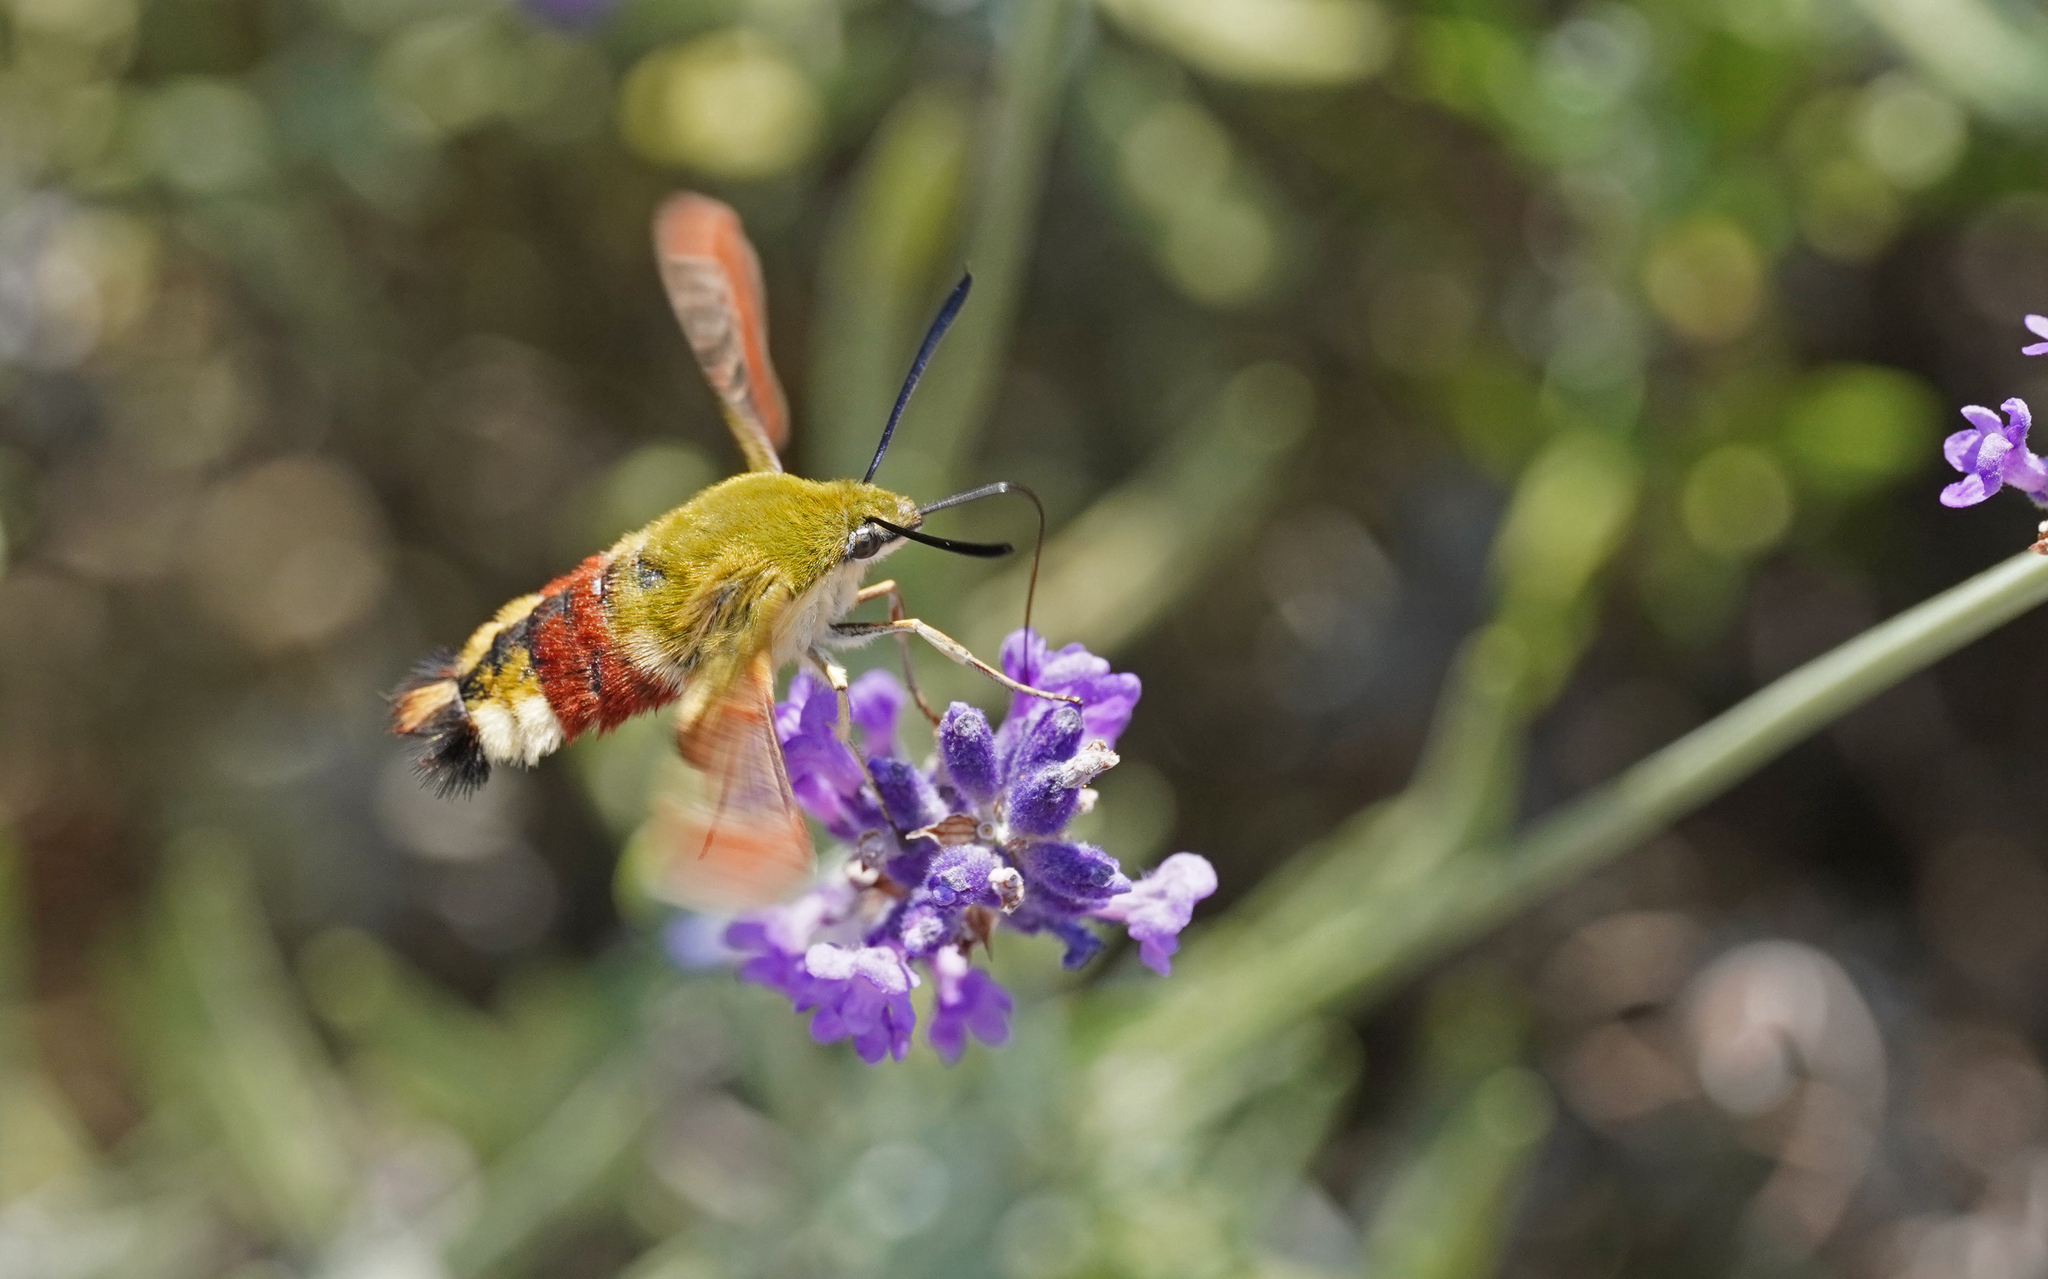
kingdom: Animalia
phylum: Arthropoda
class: Insecta
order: Lepidoptera
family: Sphingidae
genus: Hemaris
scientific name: Hemaris fuciformis
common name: Broad-bordered bee hawk-moth
